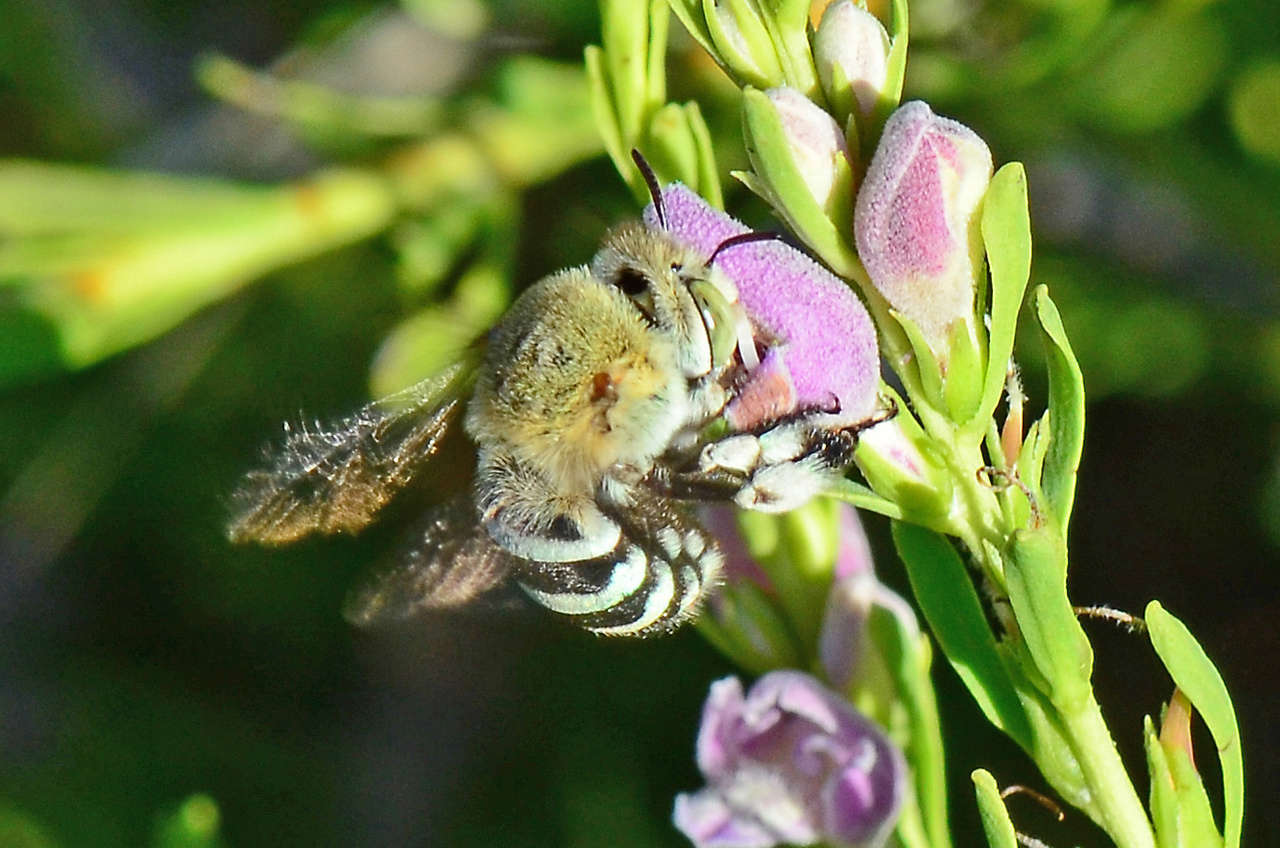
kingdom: Animalia
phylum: Arthropoda
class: Insecta
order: Hymenoptera
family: Apidae
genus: Amegilla
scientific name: Amegilla chlorocyanea
